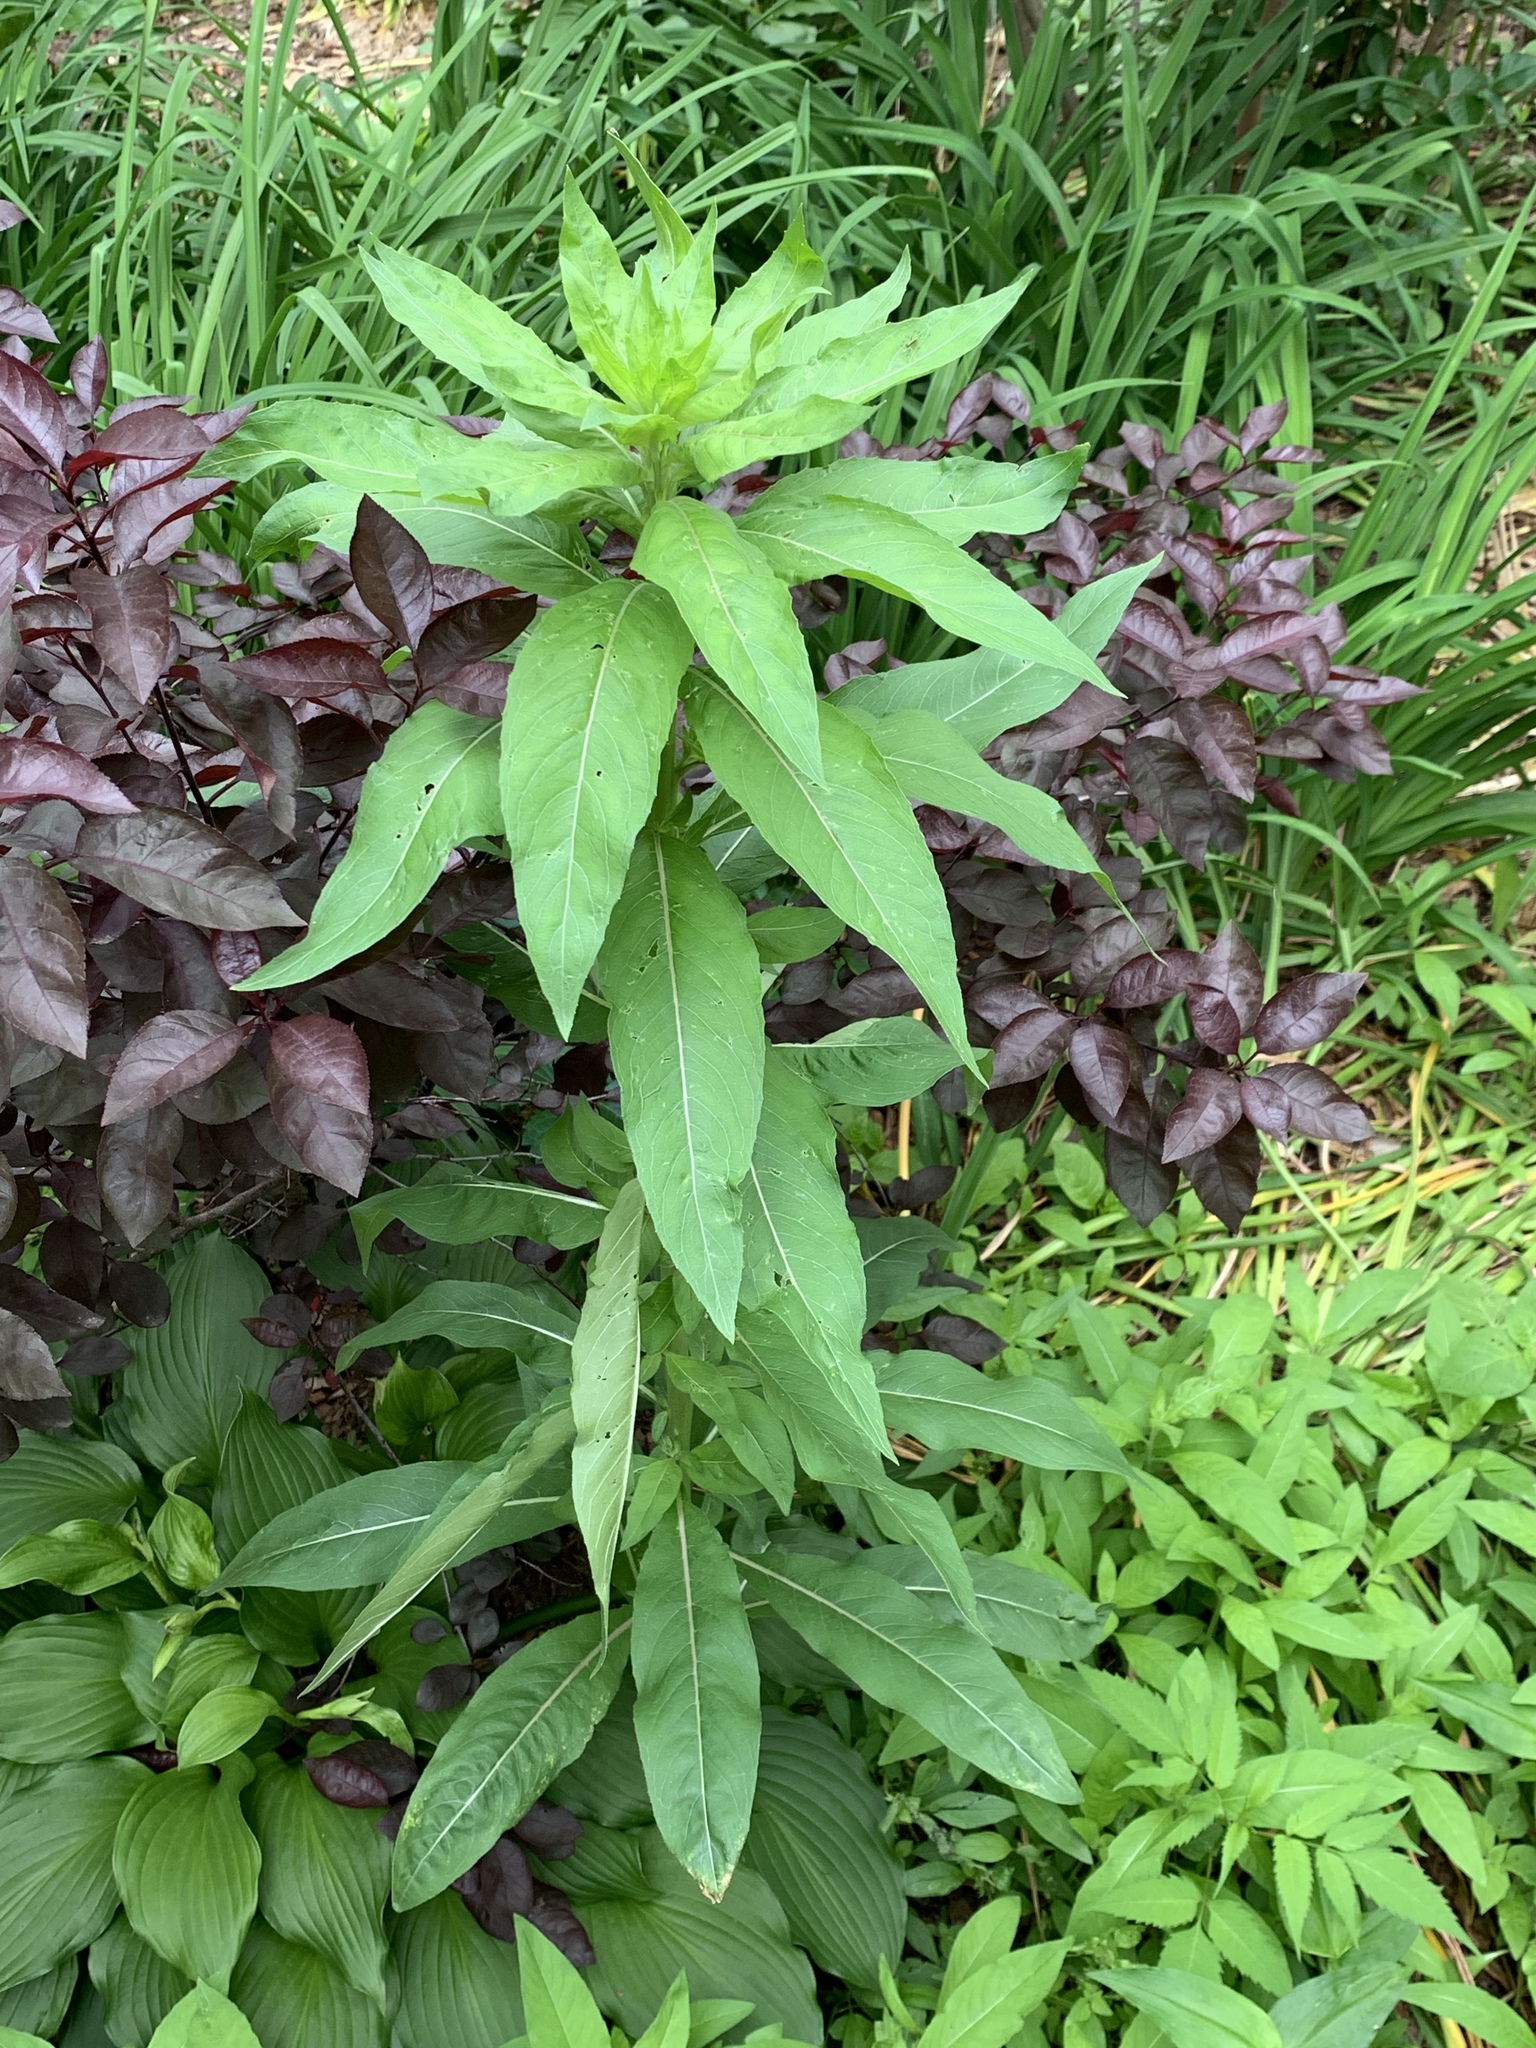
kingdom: Plantae
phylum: Tracheophyta
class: Magnoliopsida
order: Myrtales
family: Onagraceae
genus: Oenothera
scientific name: Oenothera biennis
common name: Common evening-primrose
